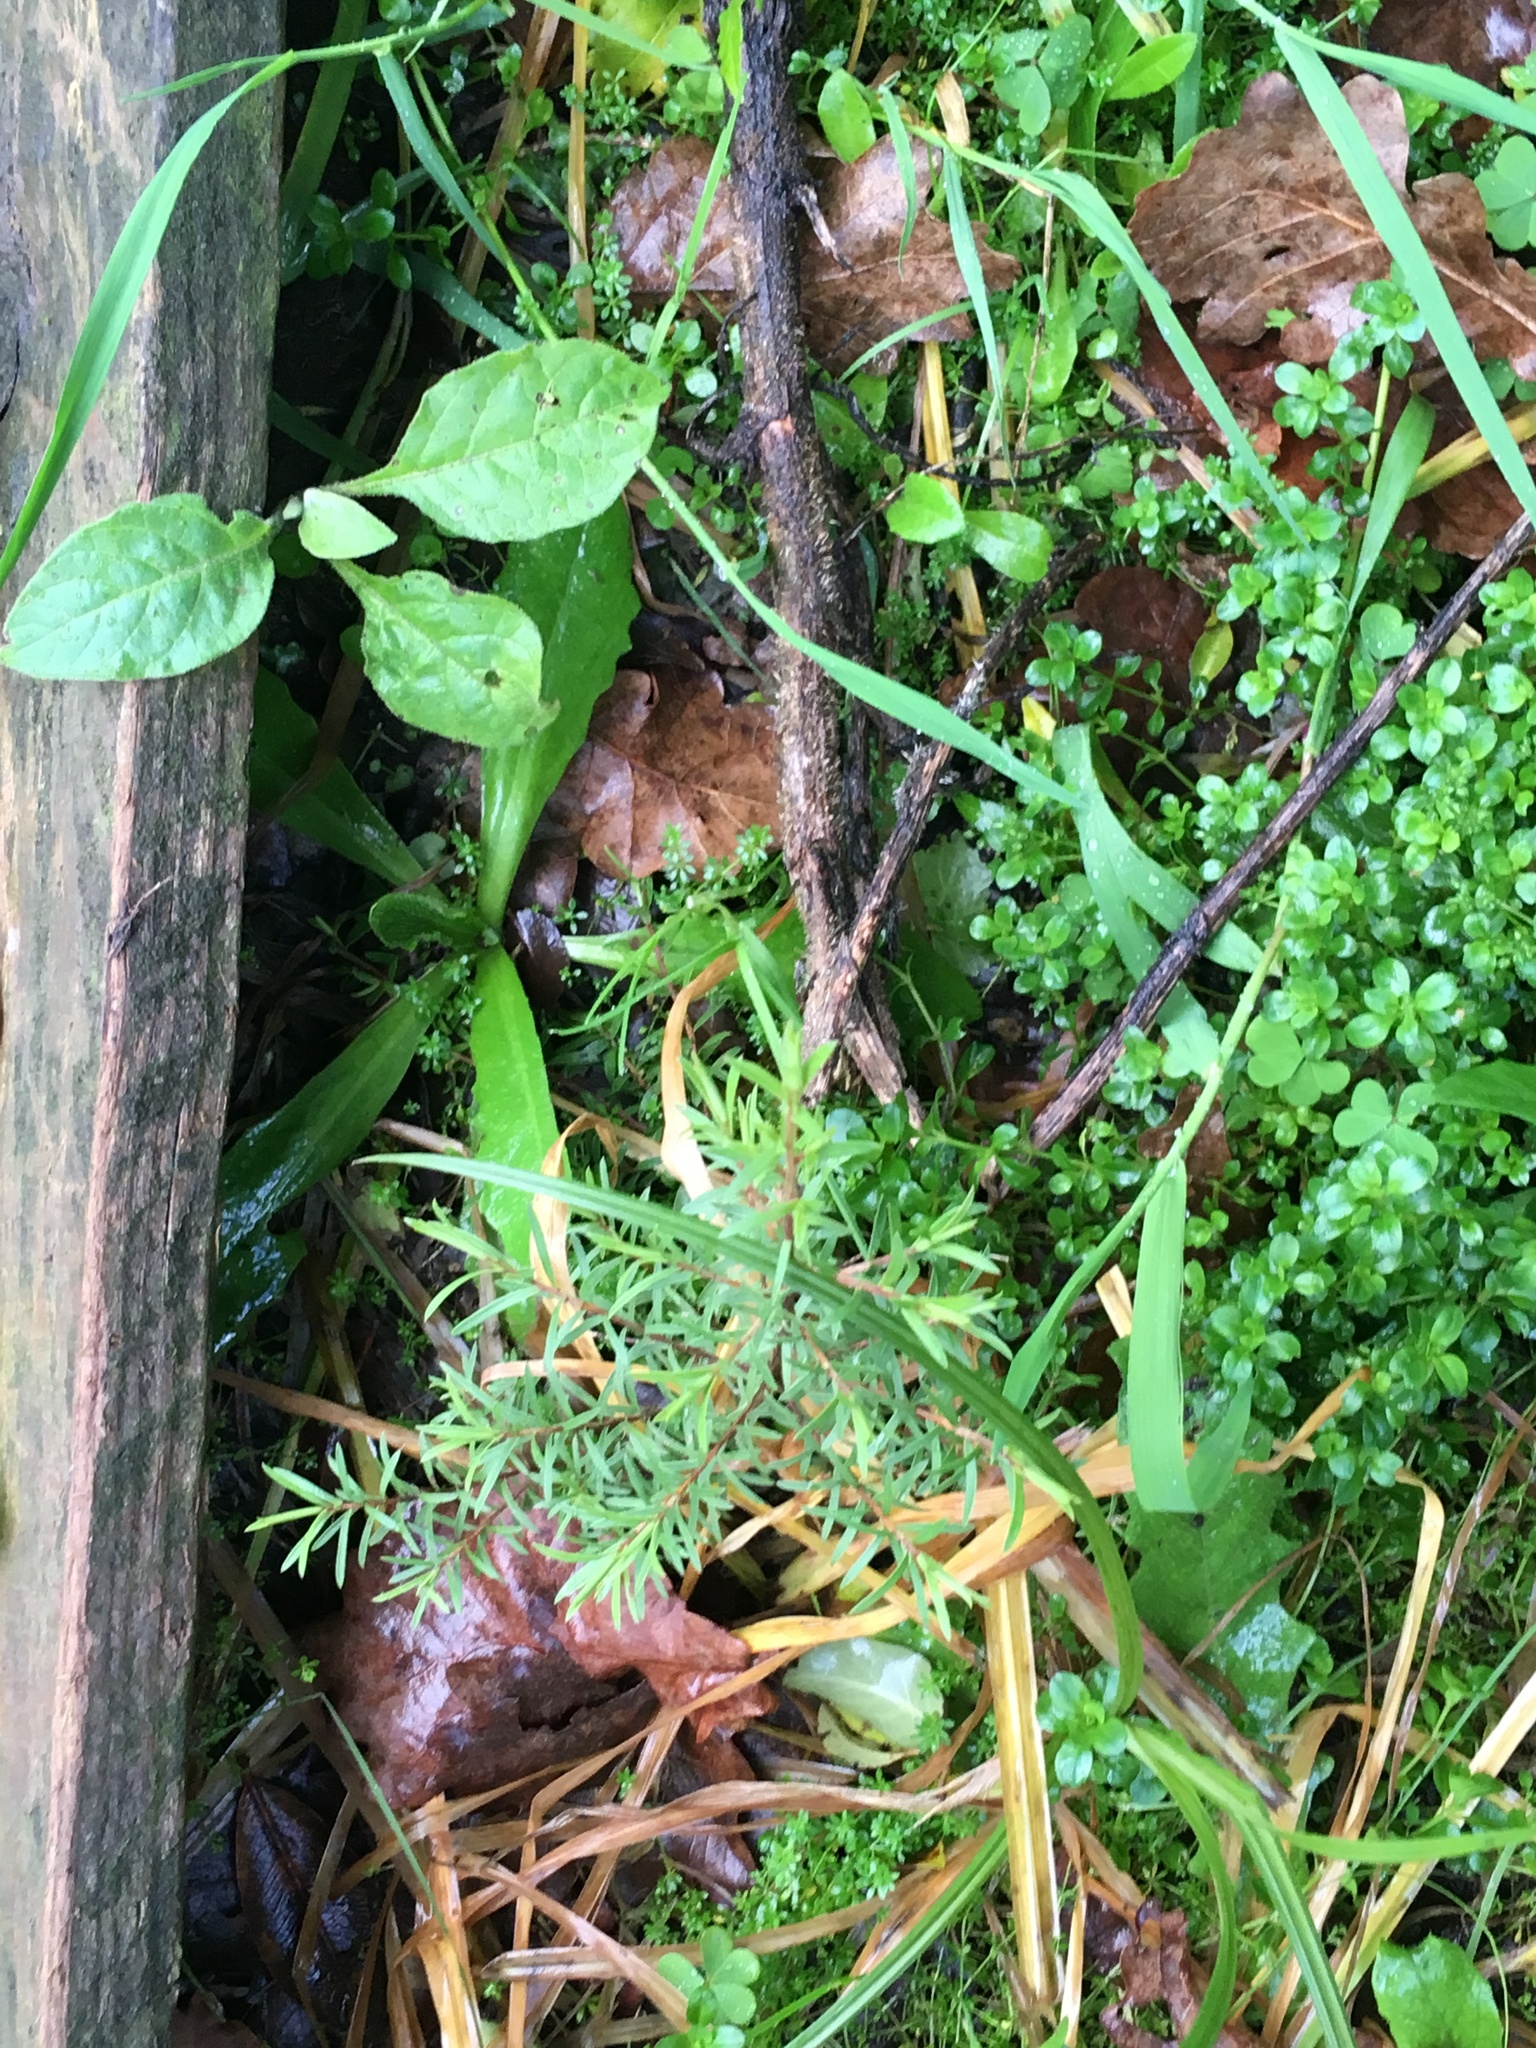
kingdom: Plantae
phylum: Tracheophyta
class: Magnoliopsida
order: Solanales
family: Solanaceae
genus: Solanum
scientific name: Solanum mauritianum
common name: Earleaf nightshade
